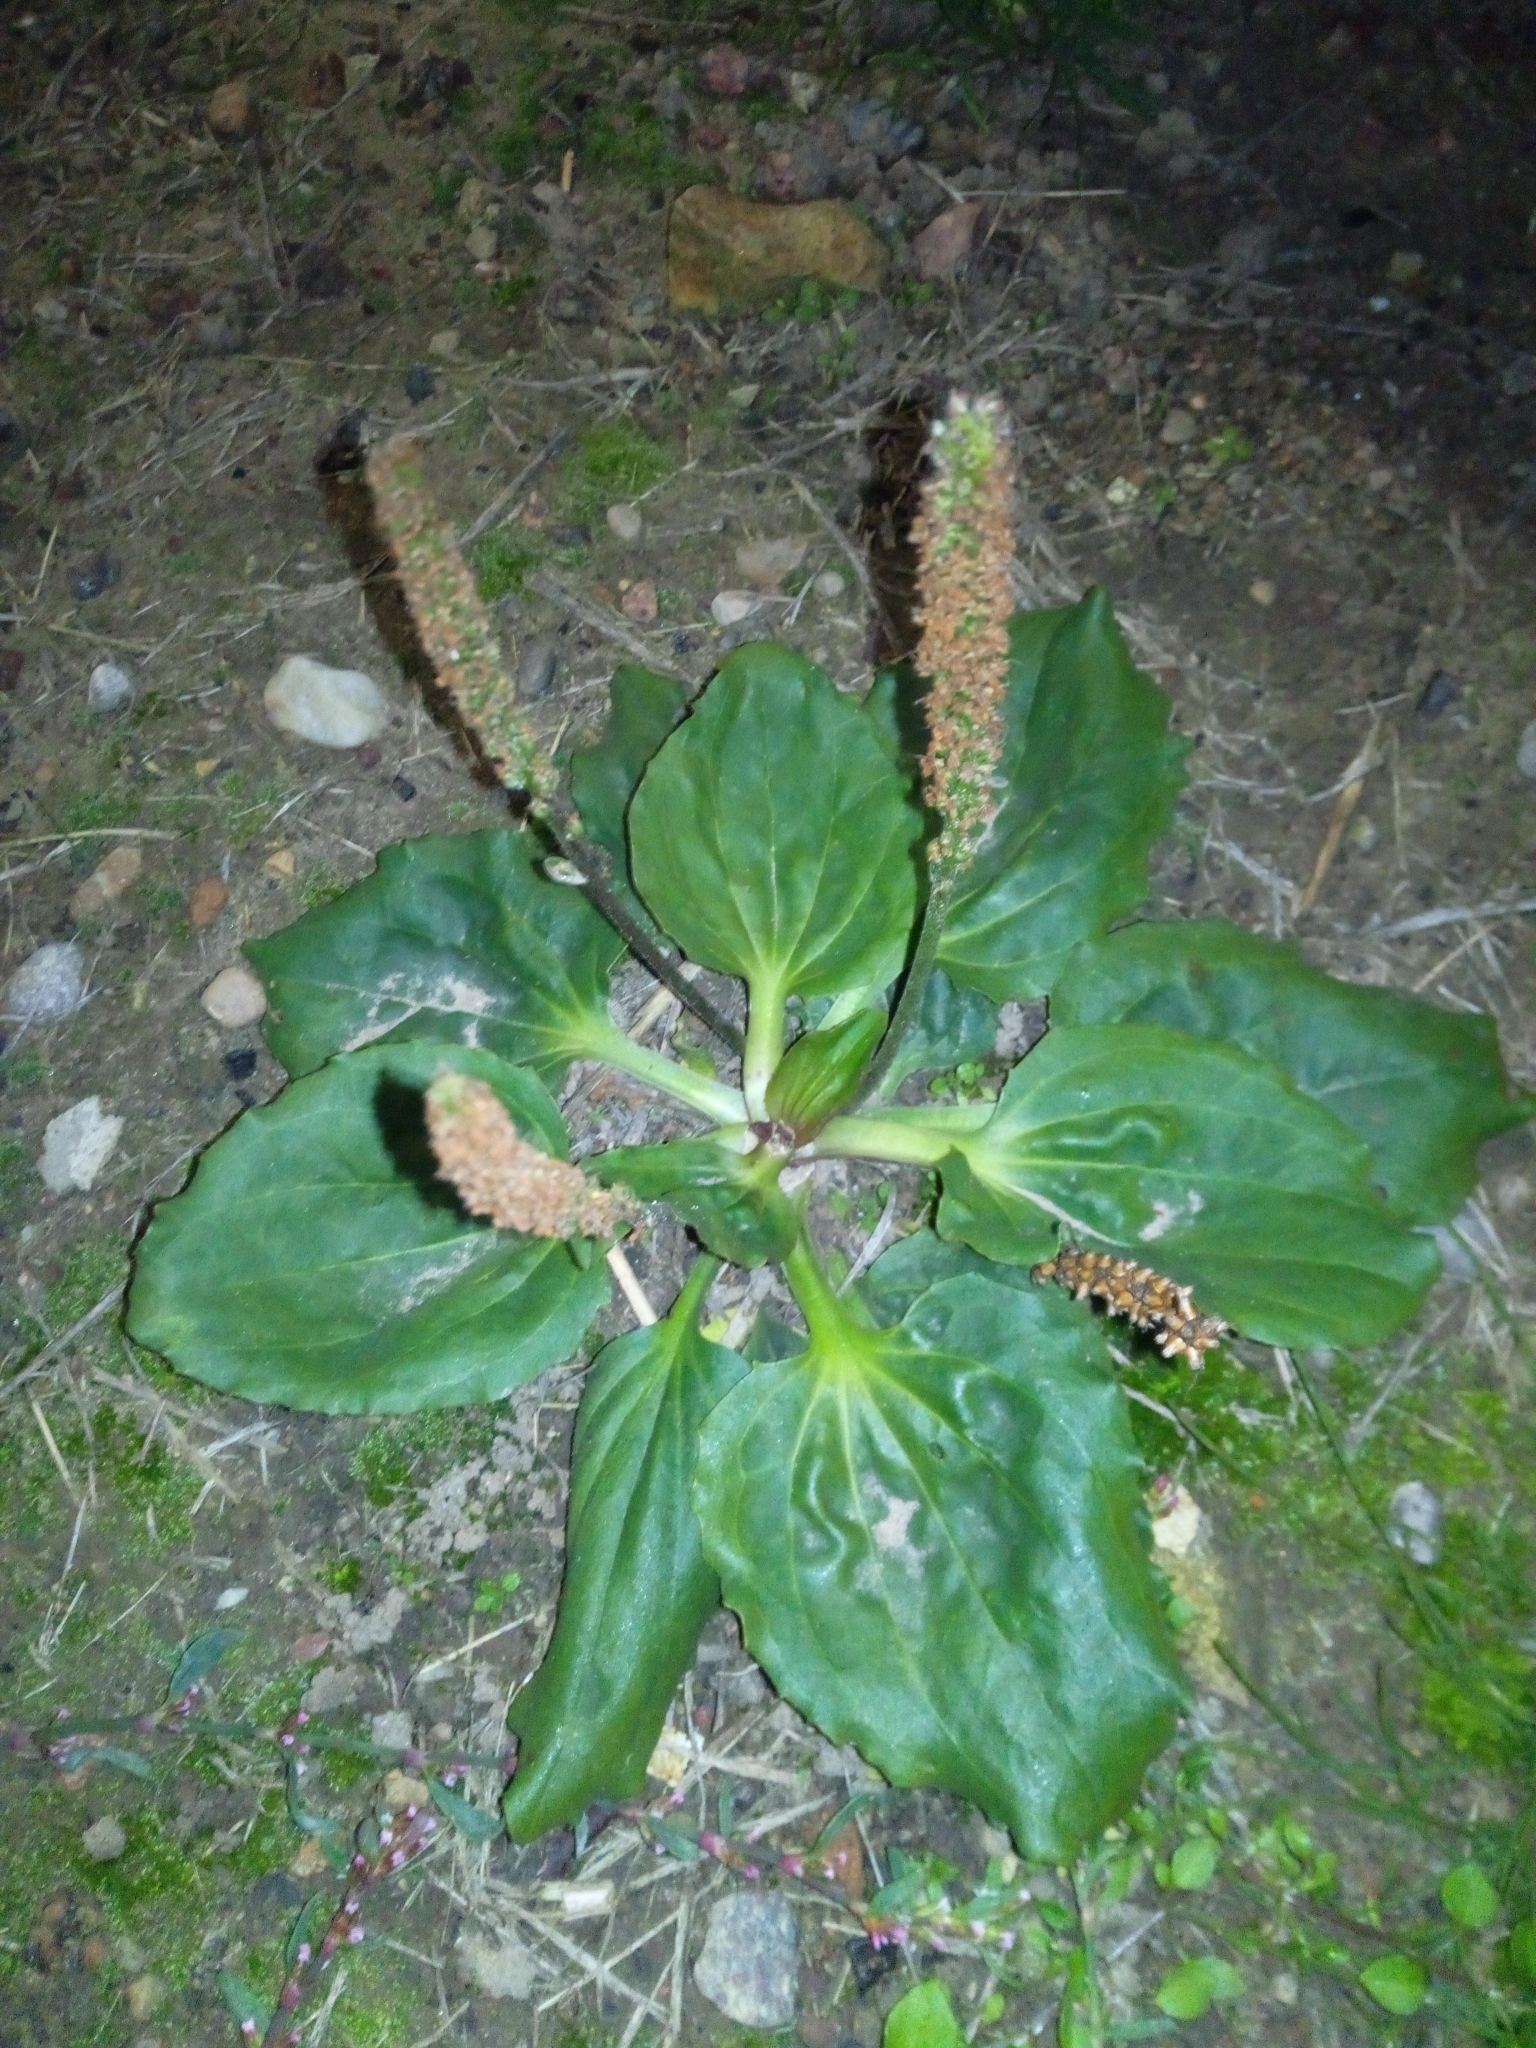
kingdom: Plantae
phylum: Tracheophyta
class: Magnoliopsida
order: Lamiales
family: Plantaginaceae
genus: Plantago
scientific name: Plantago major
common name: Common plantain
